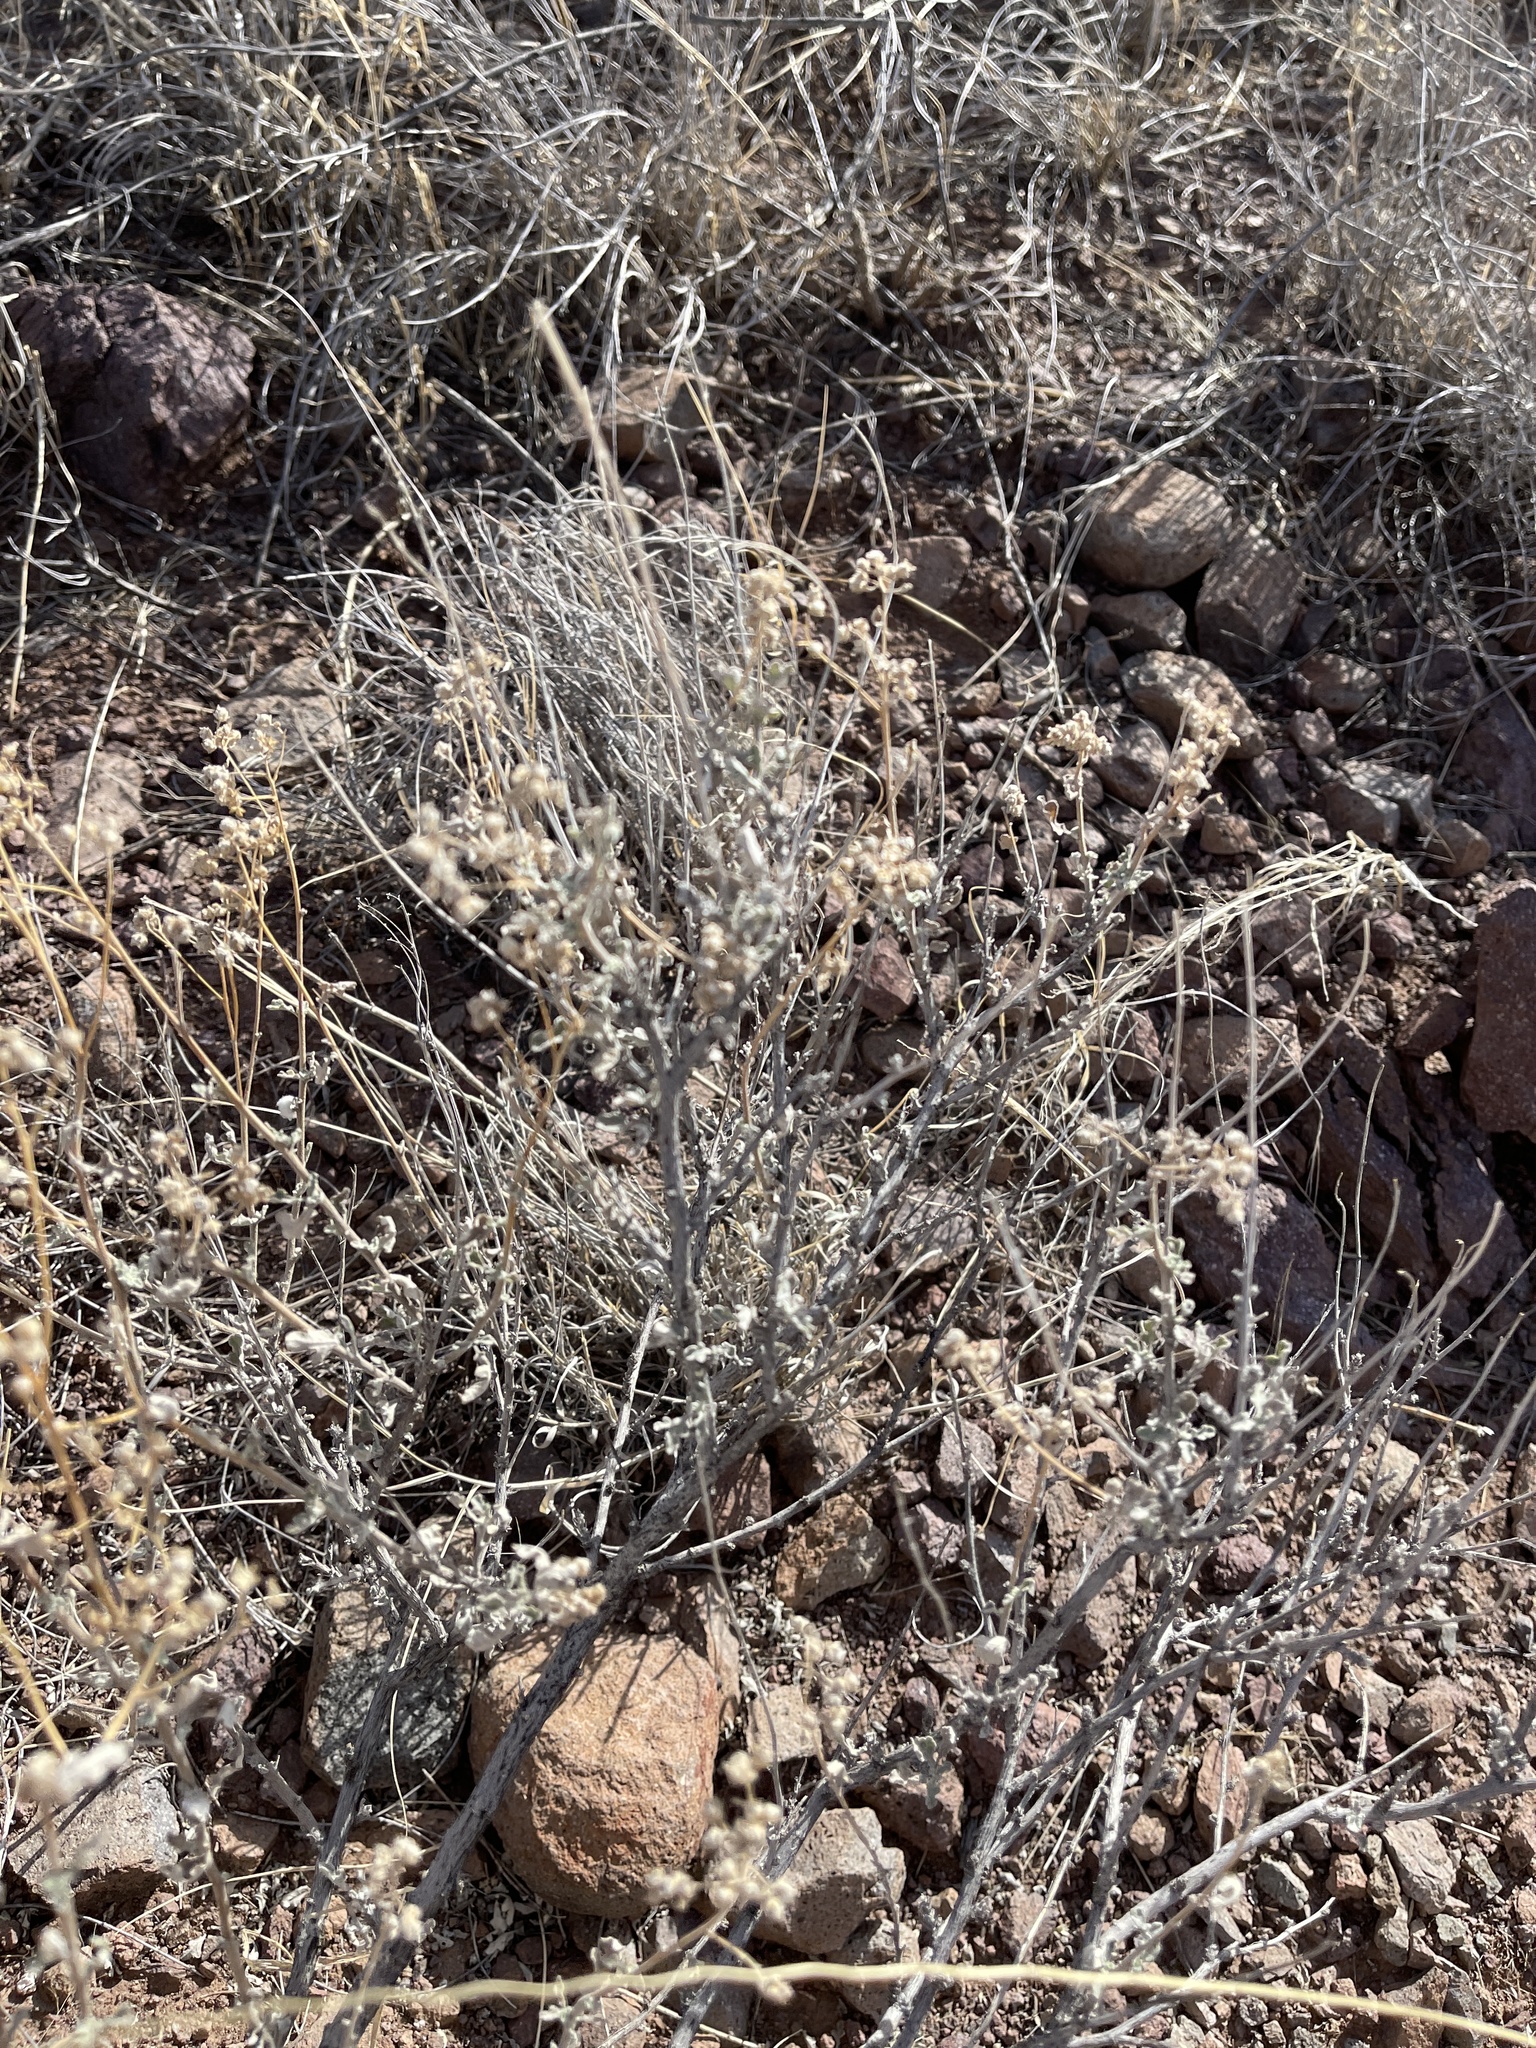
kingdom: Plantae
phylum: Tracheophyta
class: Magnoliopsida
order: Asterales
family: Asteraceae
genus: Parthenium
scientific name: Parthenium incanum
